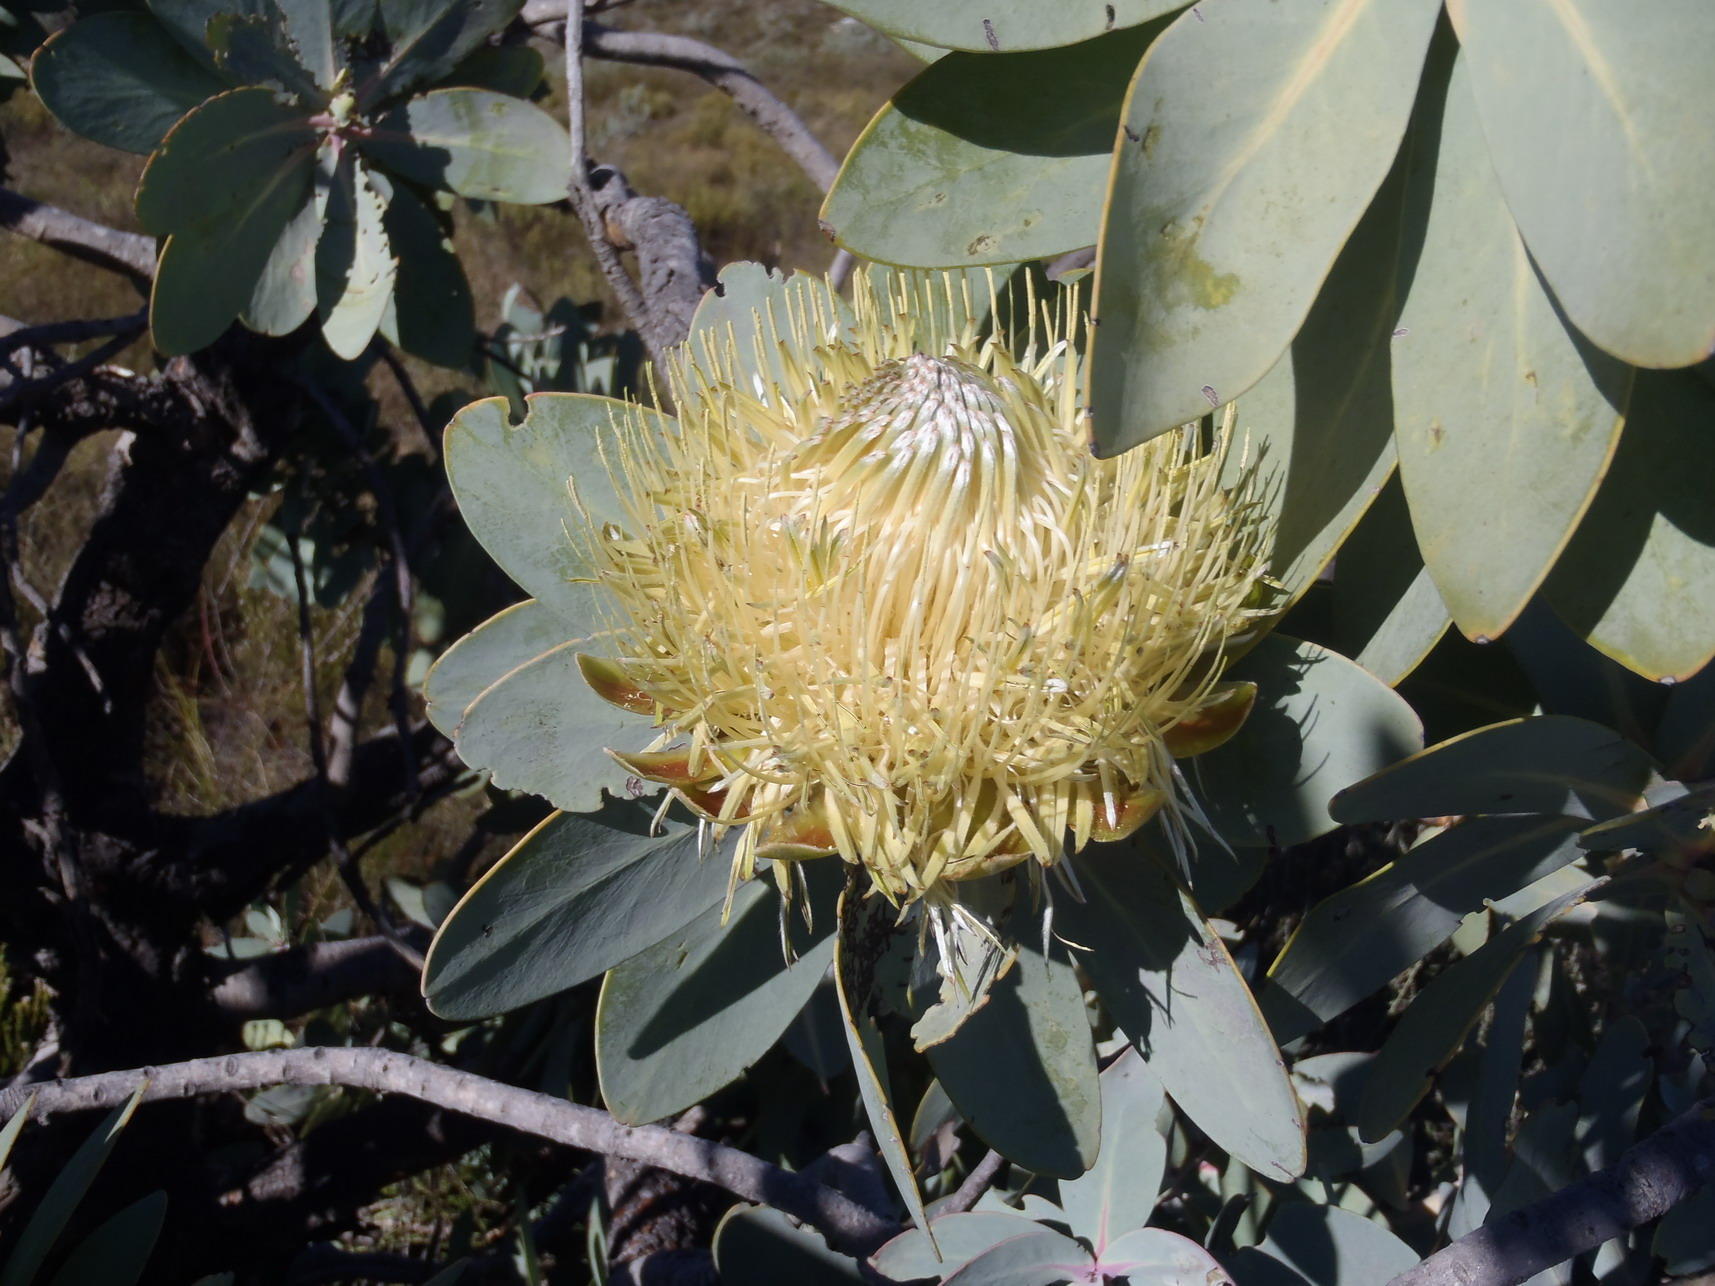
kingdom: Plantae
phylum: Tracheophyta
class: Magnoliopsida
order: Proteales
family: Proteaceae
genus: Protea
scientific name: Protea nitida
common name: Tree protea
